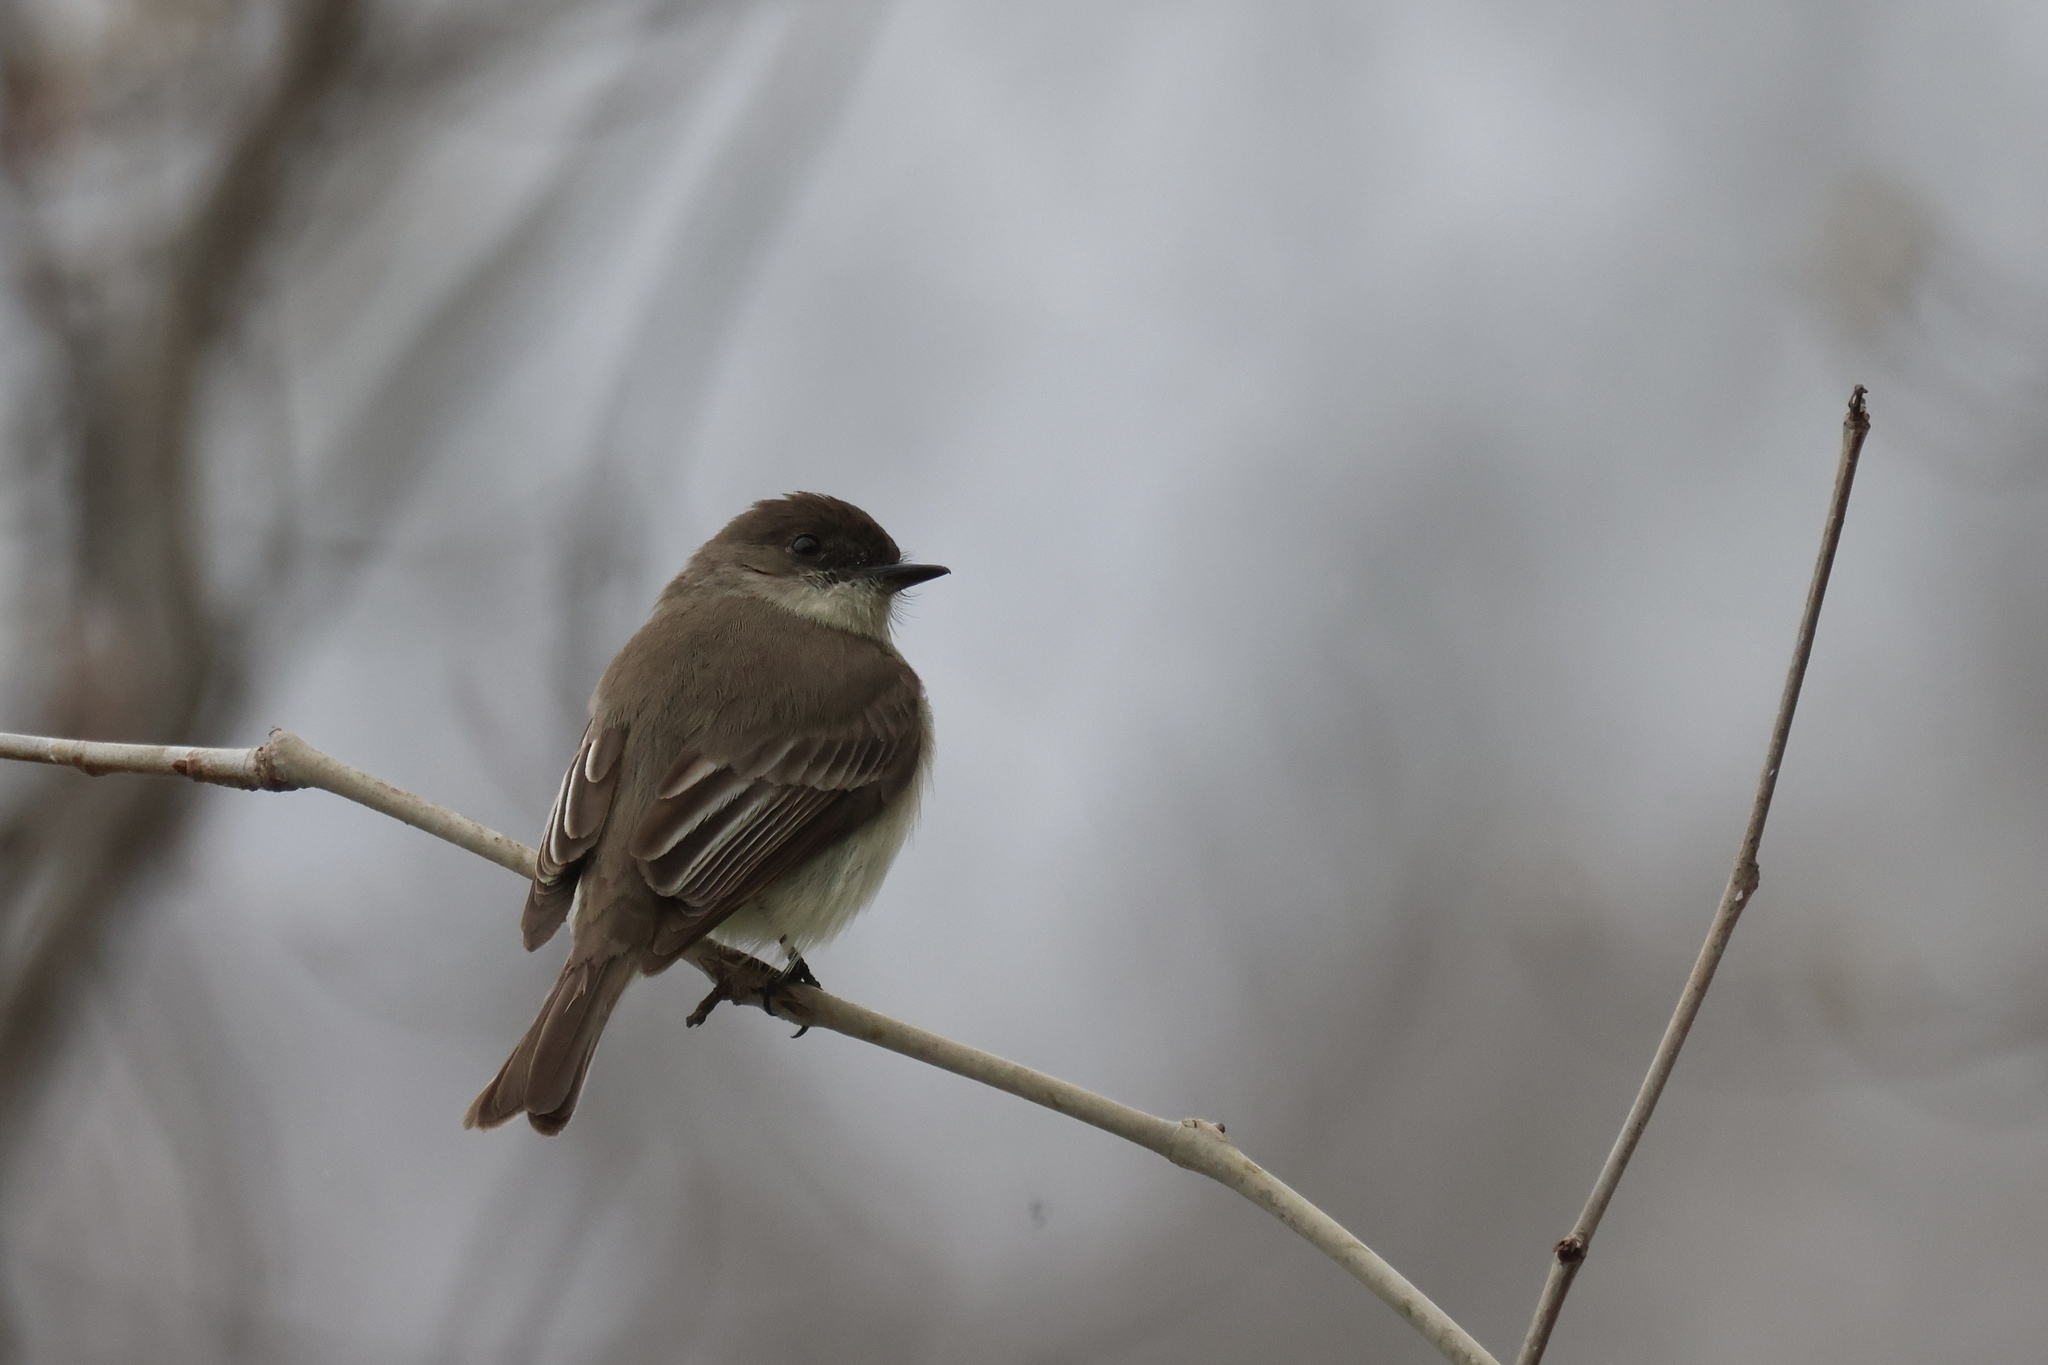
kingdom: Animalia
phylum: Chordata
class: Aves
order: Passeriformes
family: Tyrannidae
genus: Sayornis
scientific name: Sayornis phoebe
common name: Eastern phoebe
